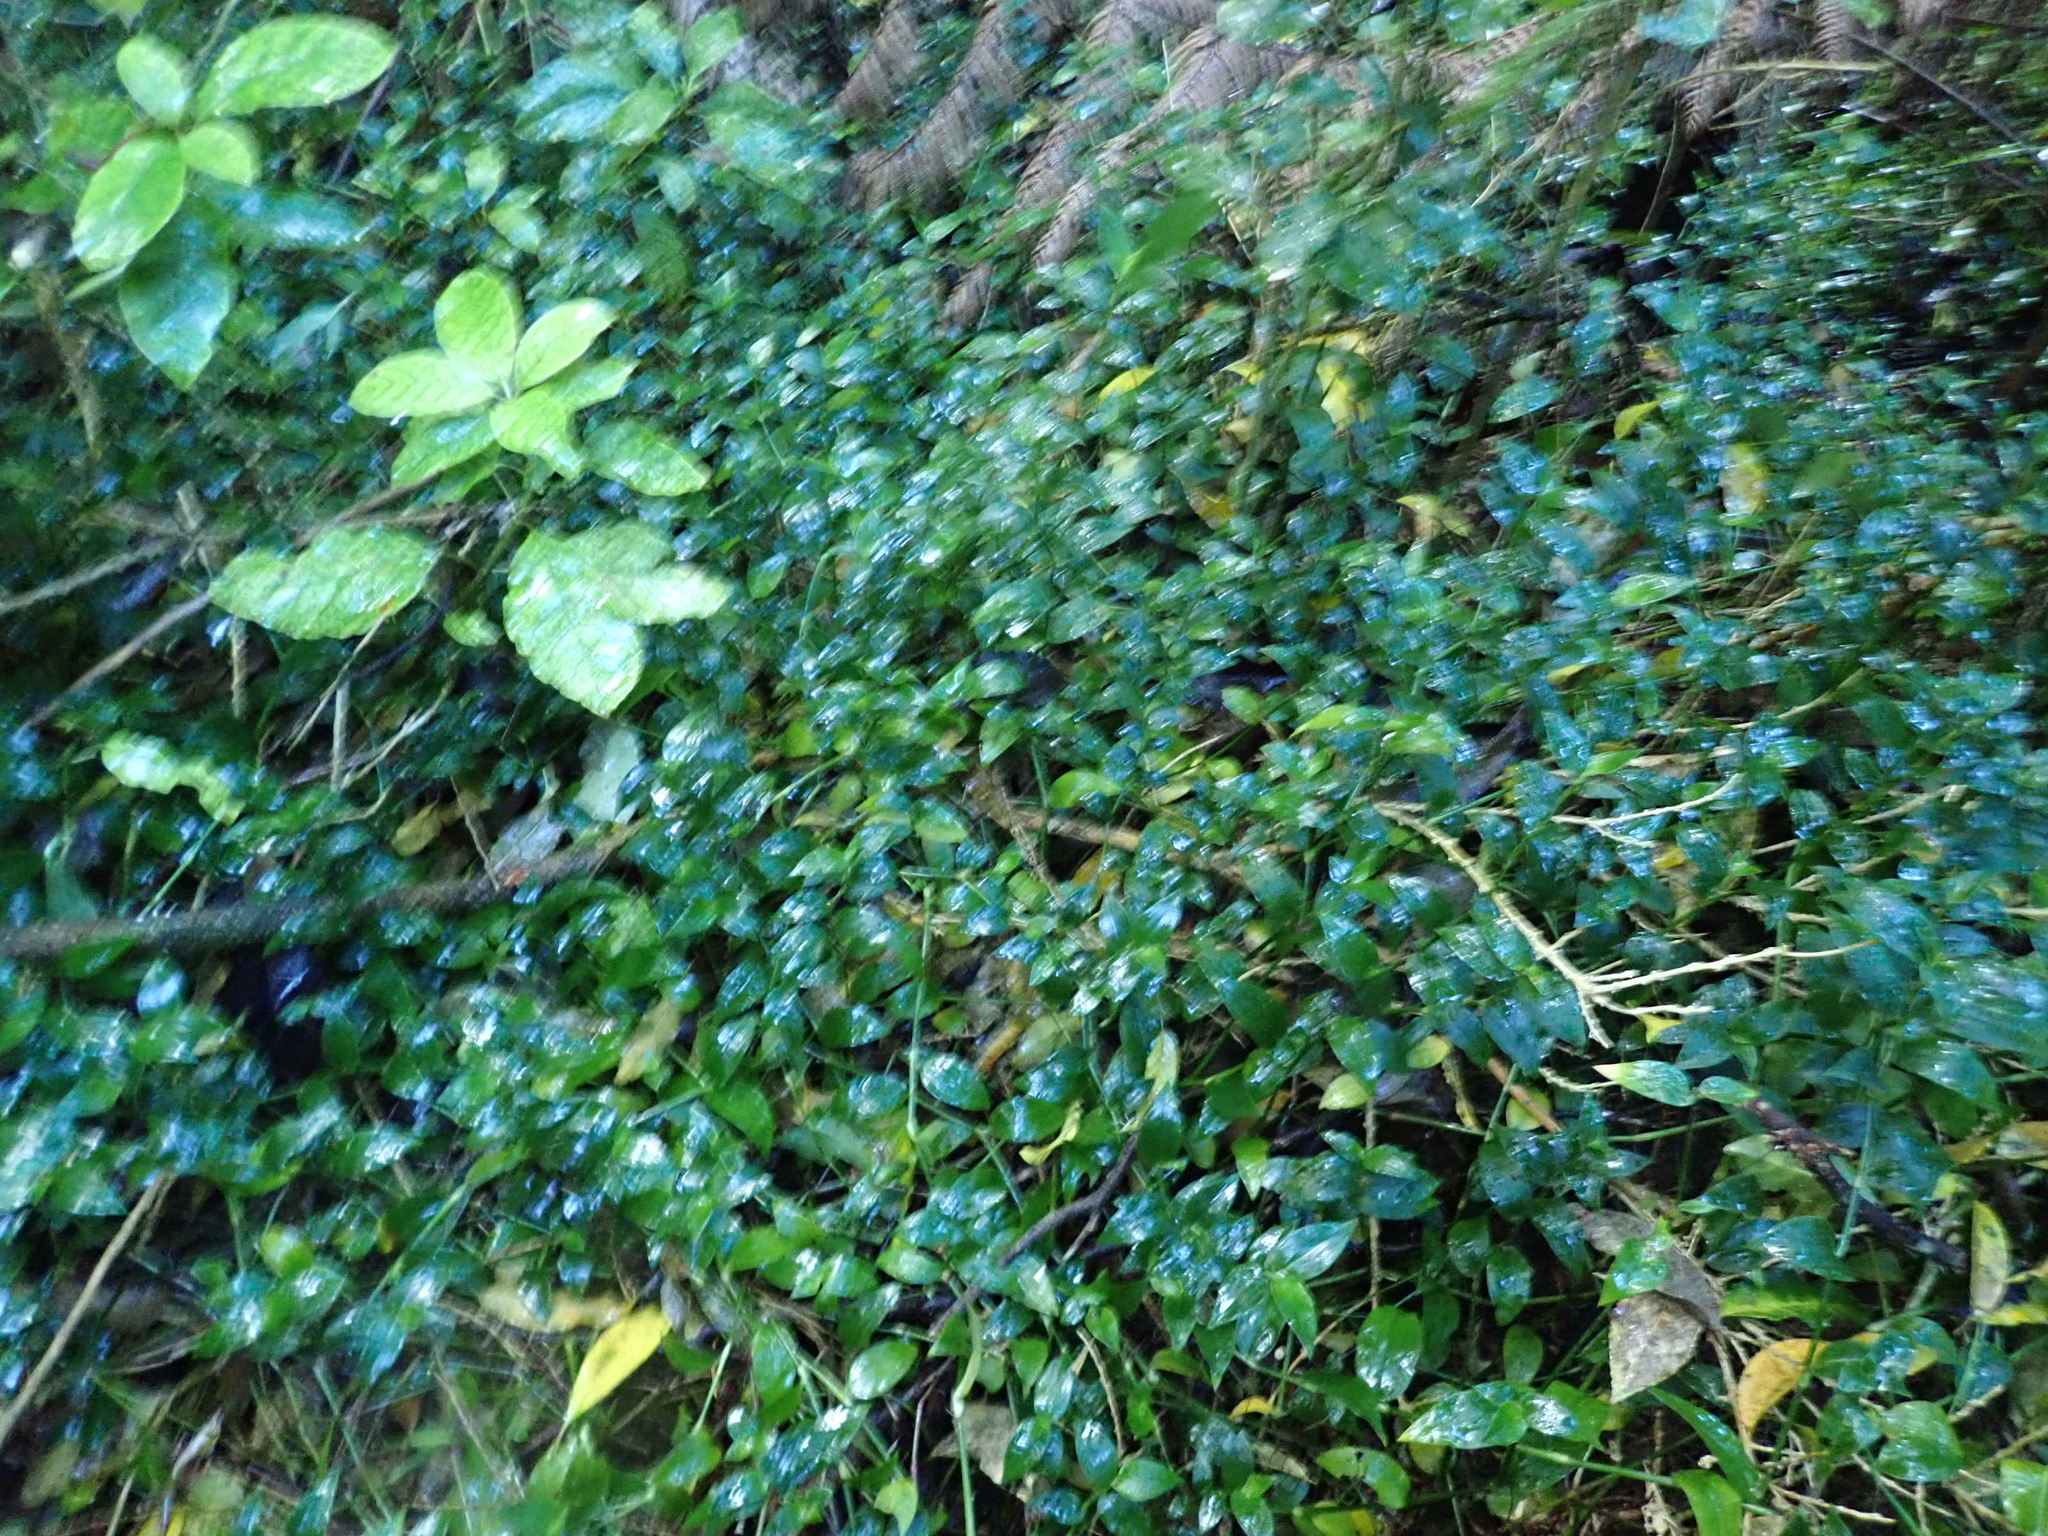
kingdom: Plantae
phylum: Tracheophyta
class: Magnoliopsida
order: Gentianales
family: Rubiaceae
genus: Coprosma
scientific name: Coprosma autumnalis
